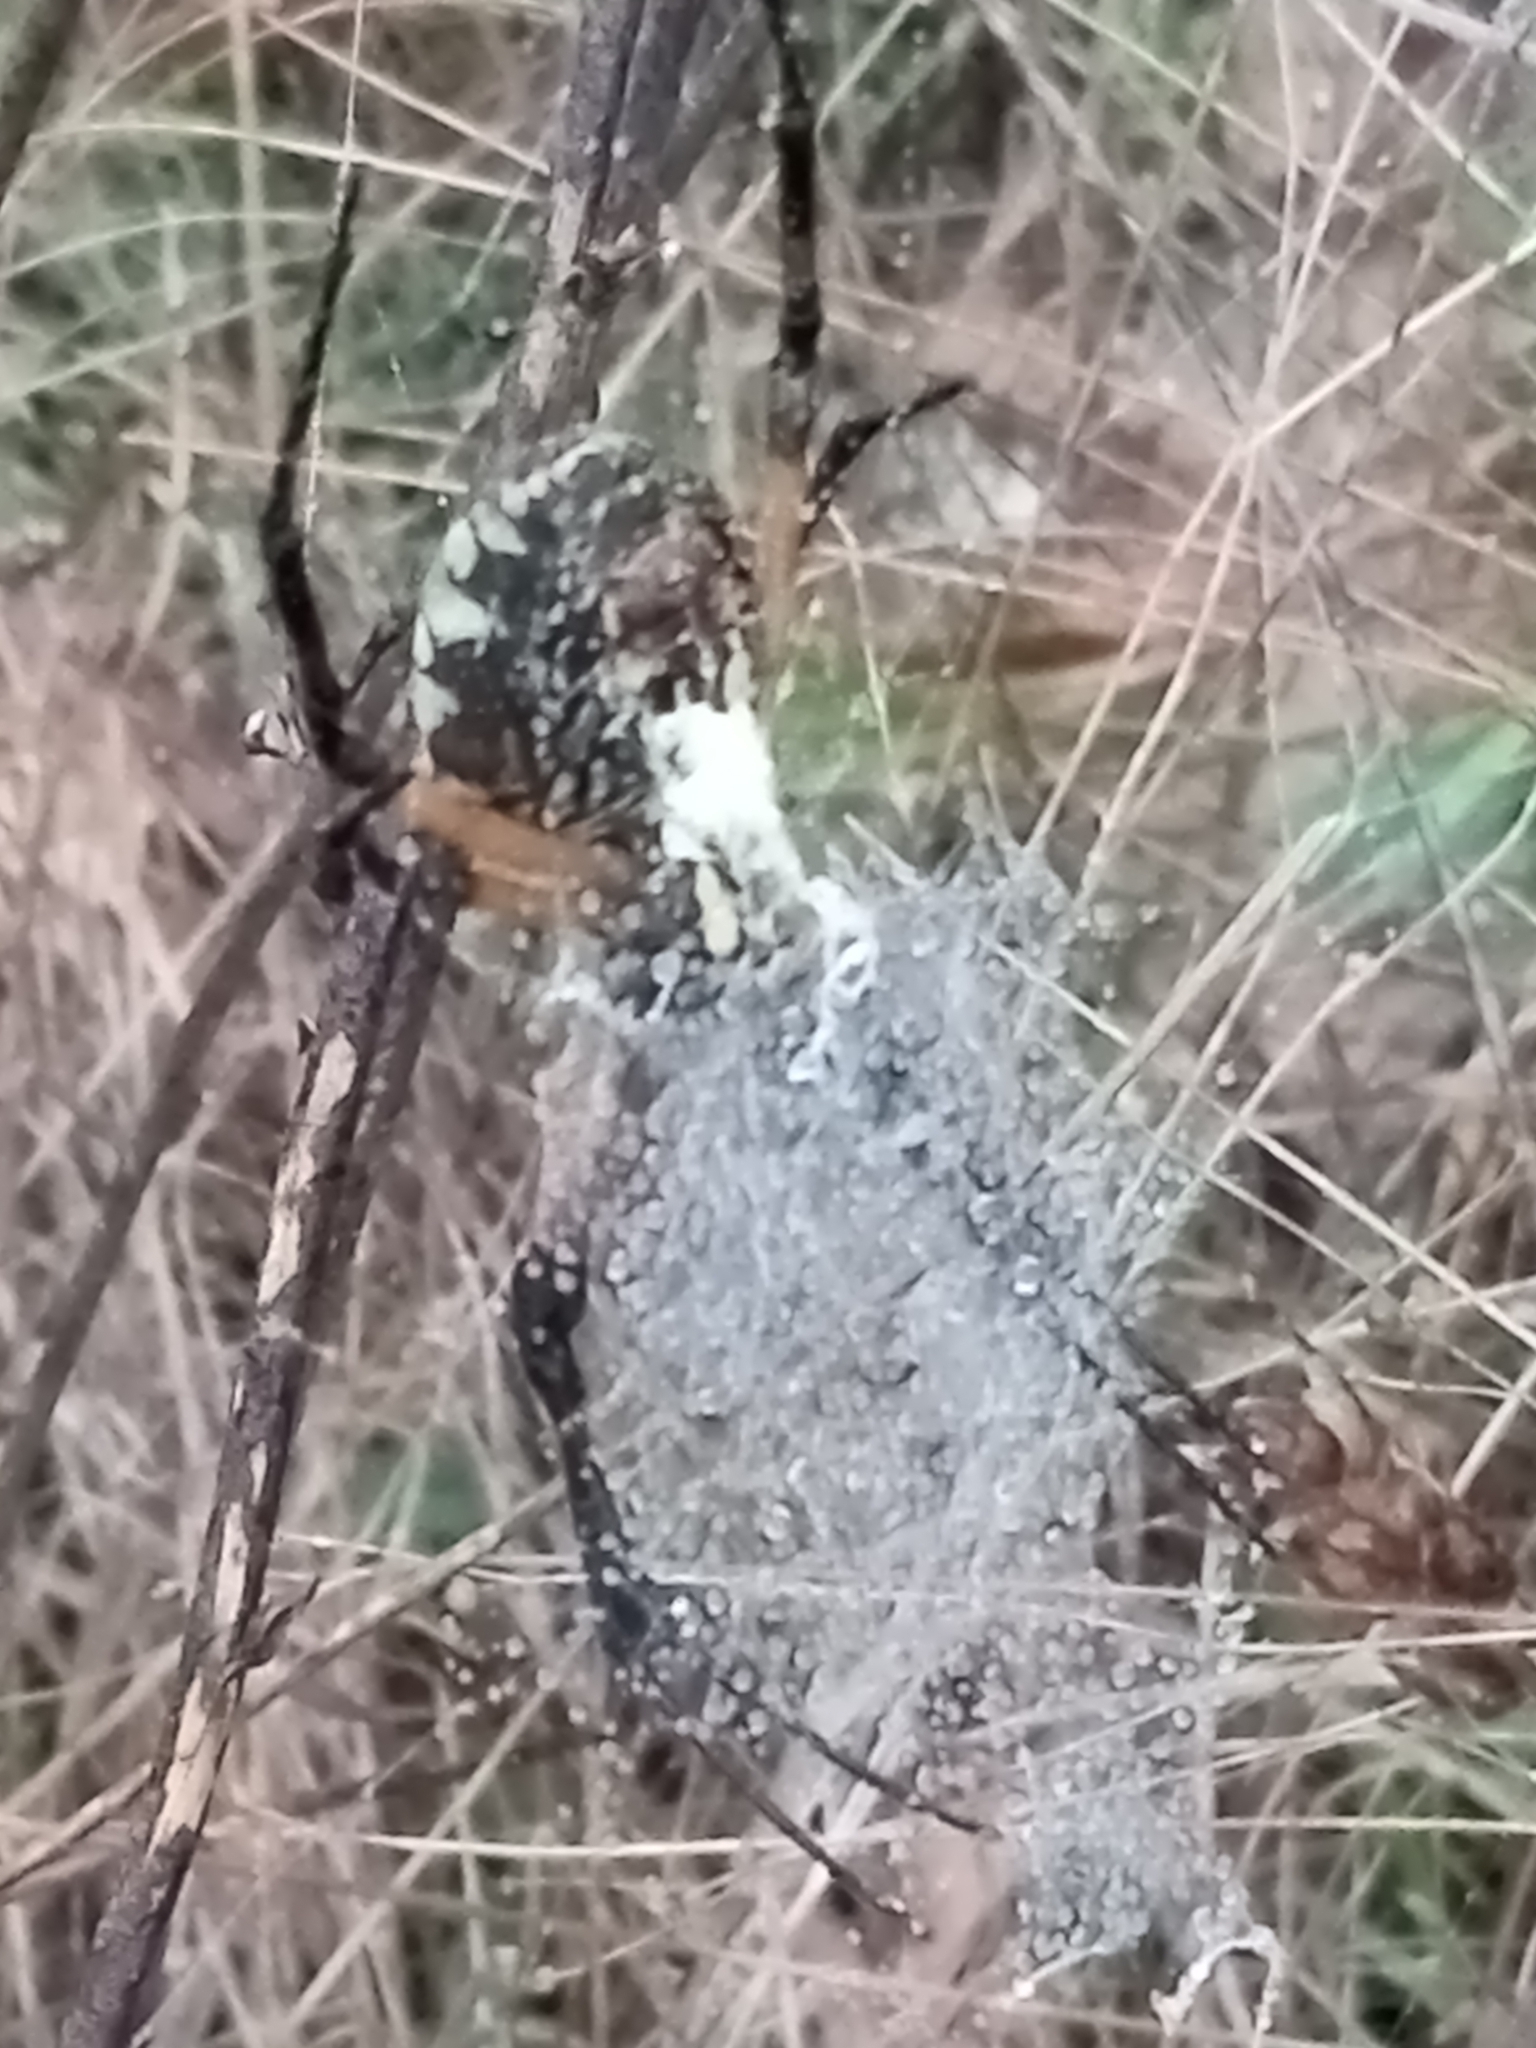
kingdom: Animalia
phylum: Arthropoda
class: Arachnida
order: Araneae
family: Araneidae
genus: Argiope
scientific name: Argiope aurantia
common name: Orb weavers
